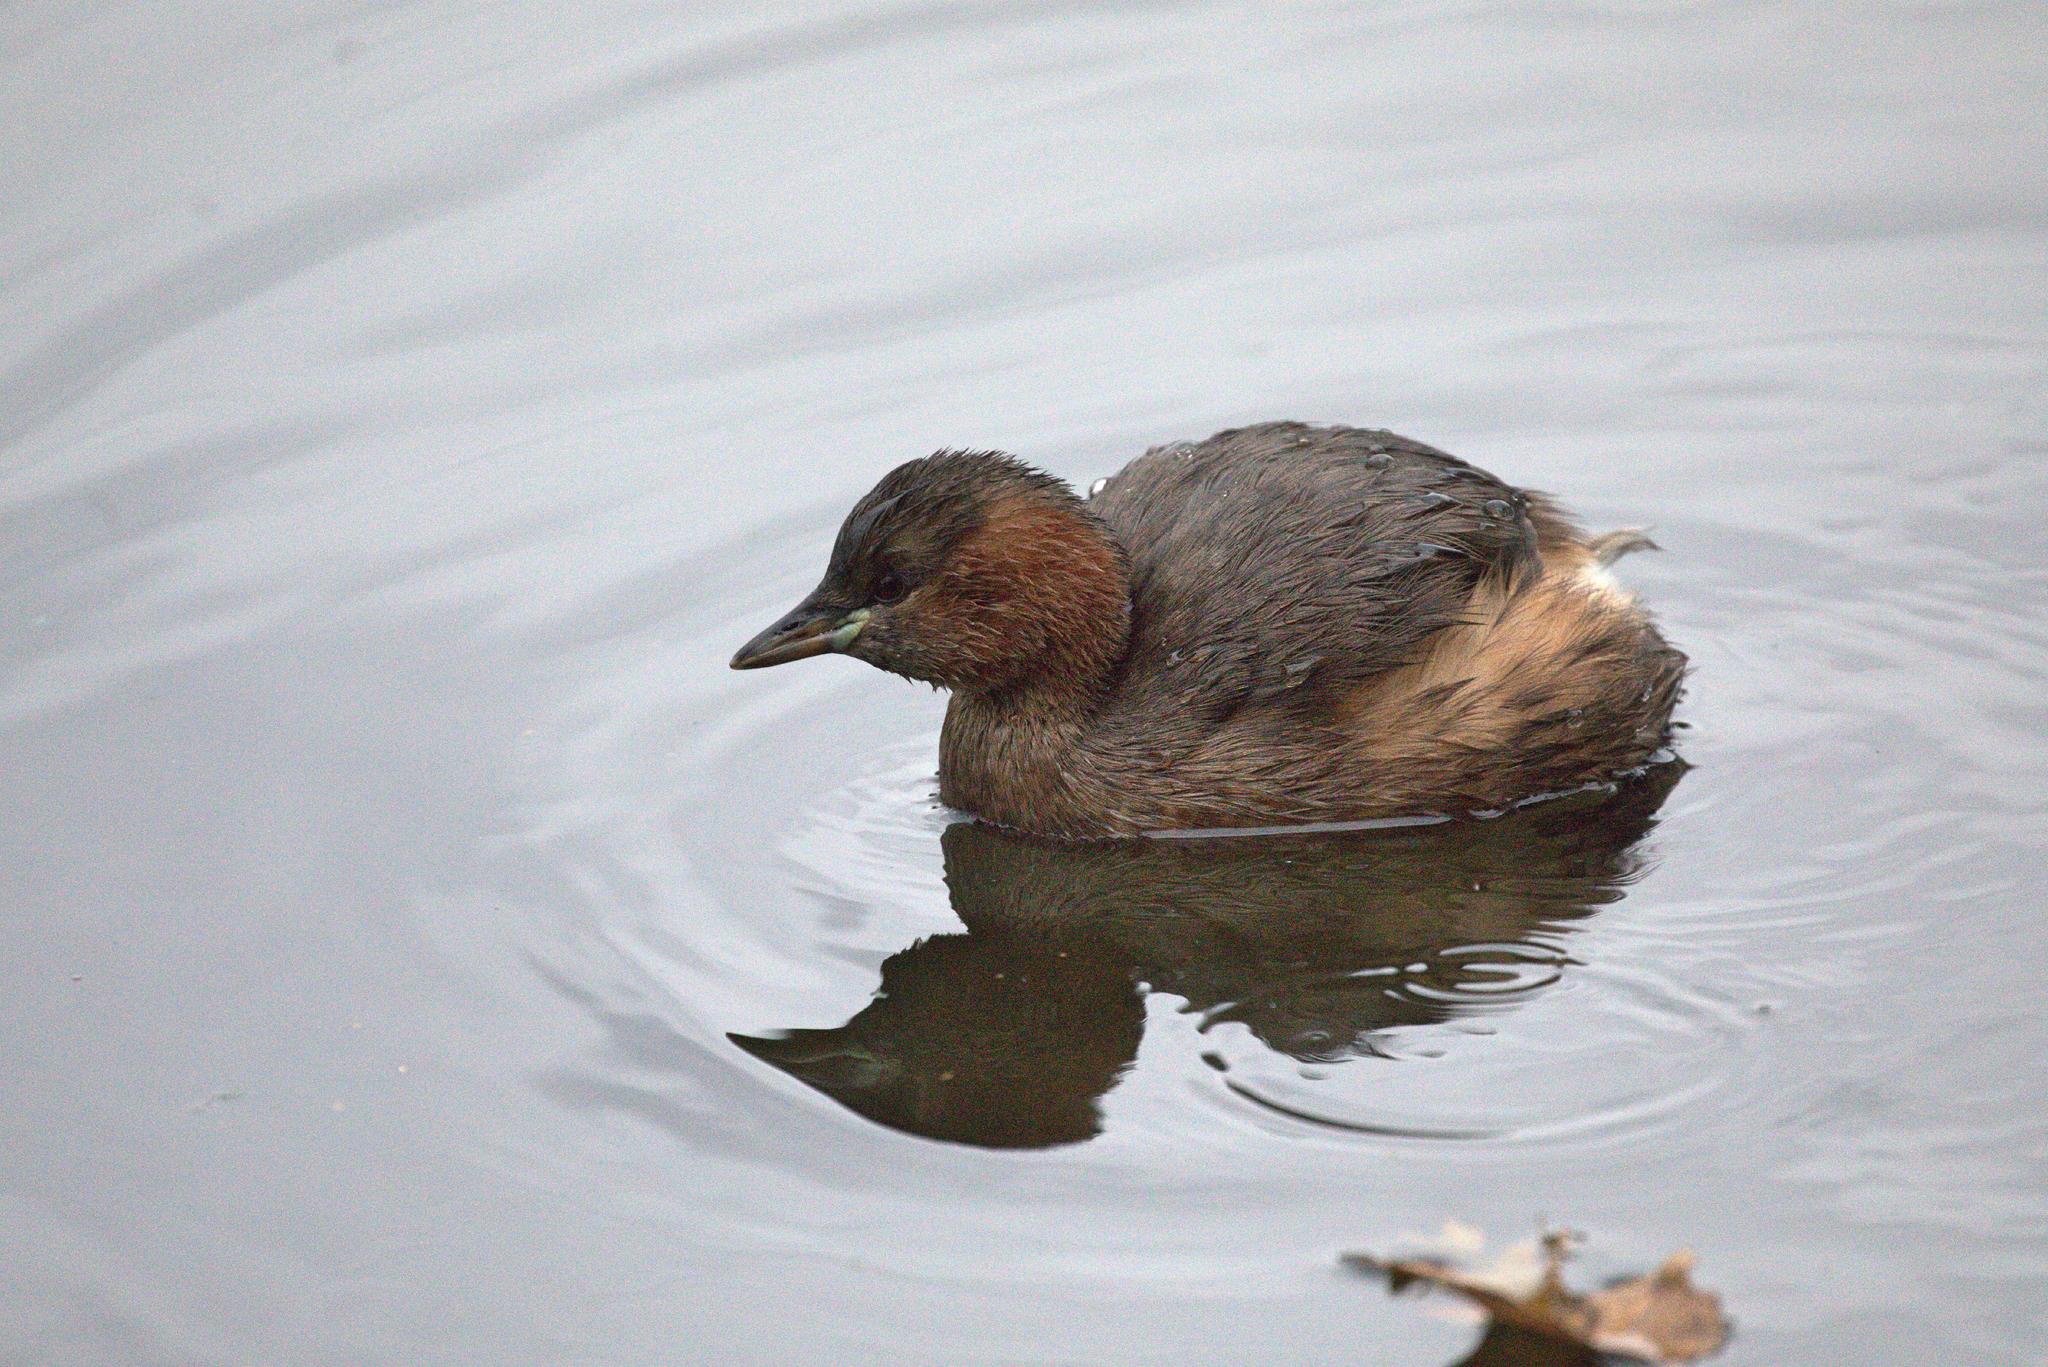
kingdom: Animalia
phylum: Chordata
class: Aves
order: Podicipediformes
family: Podicipedidae
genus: Tachybaptus
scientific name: Tachybaptus ruficollis
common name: Little grebe
